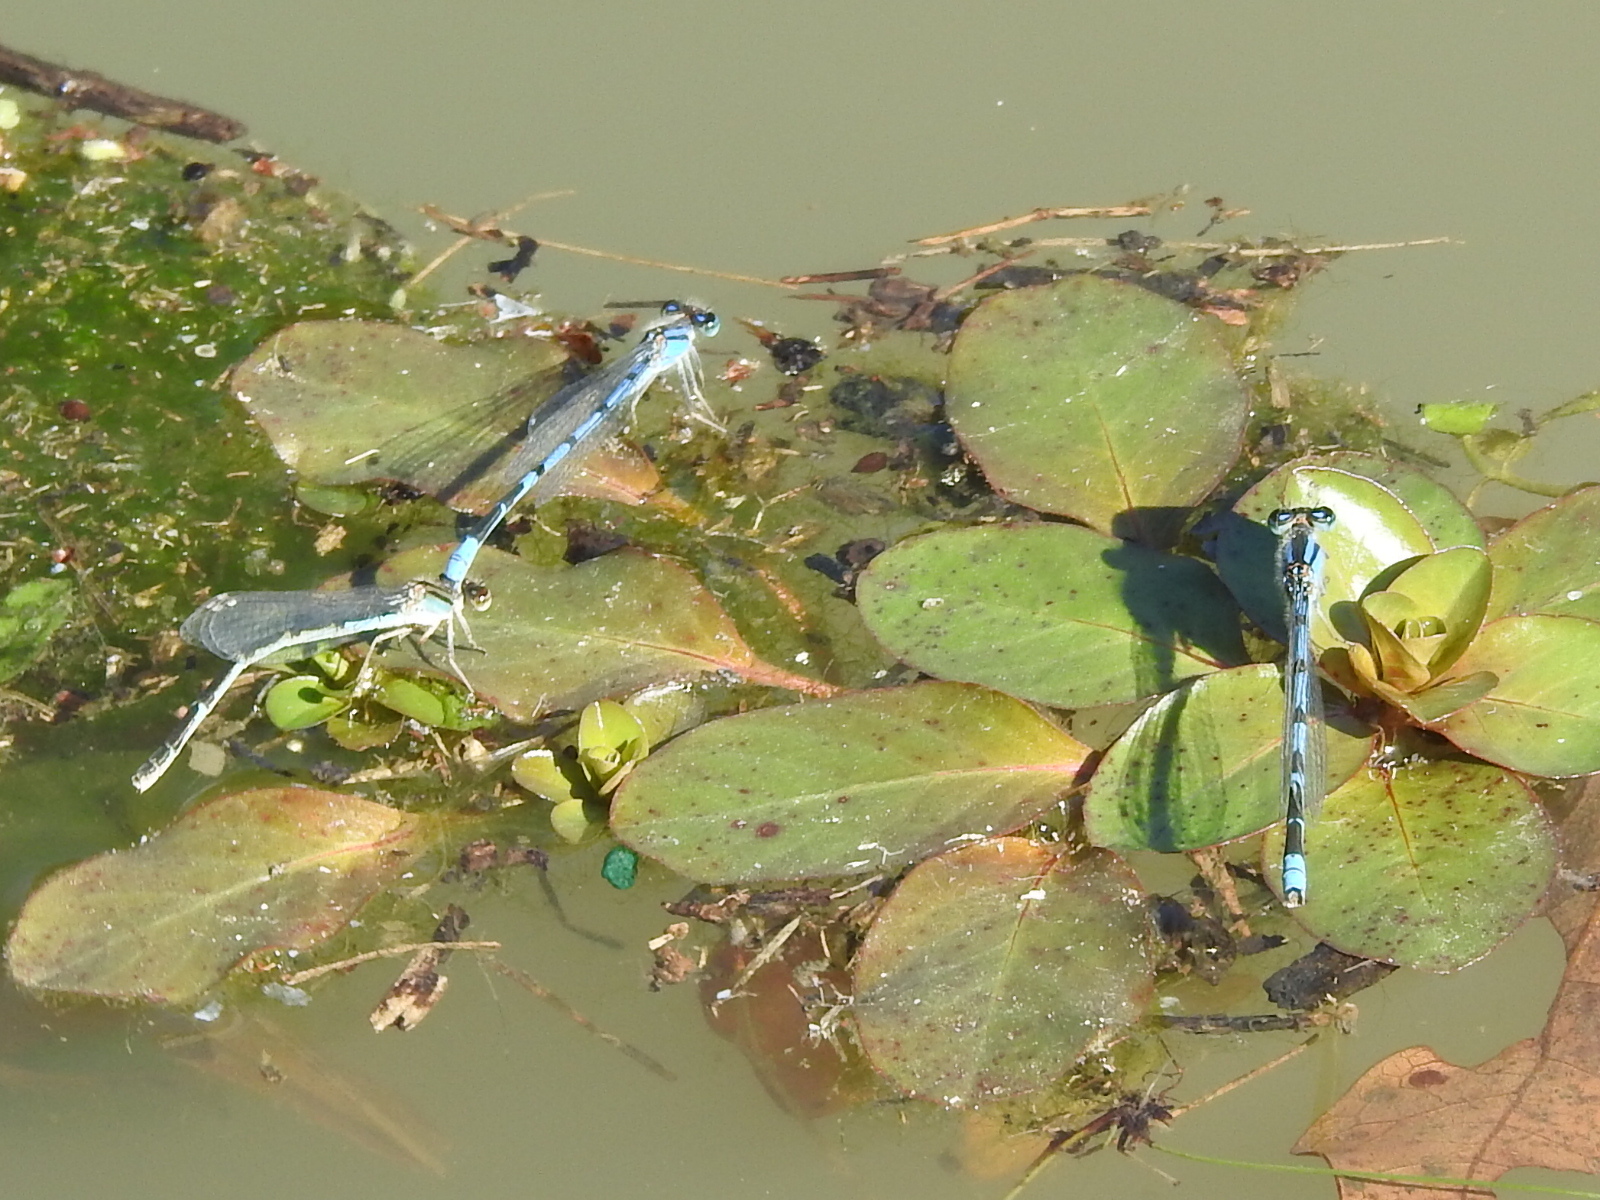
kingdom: Animalia
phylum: Arthropoda
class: Insecta
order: Odonata
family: Coenagrionidae
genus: Enallagma
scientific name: Enallagma civile
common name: Damselfly
